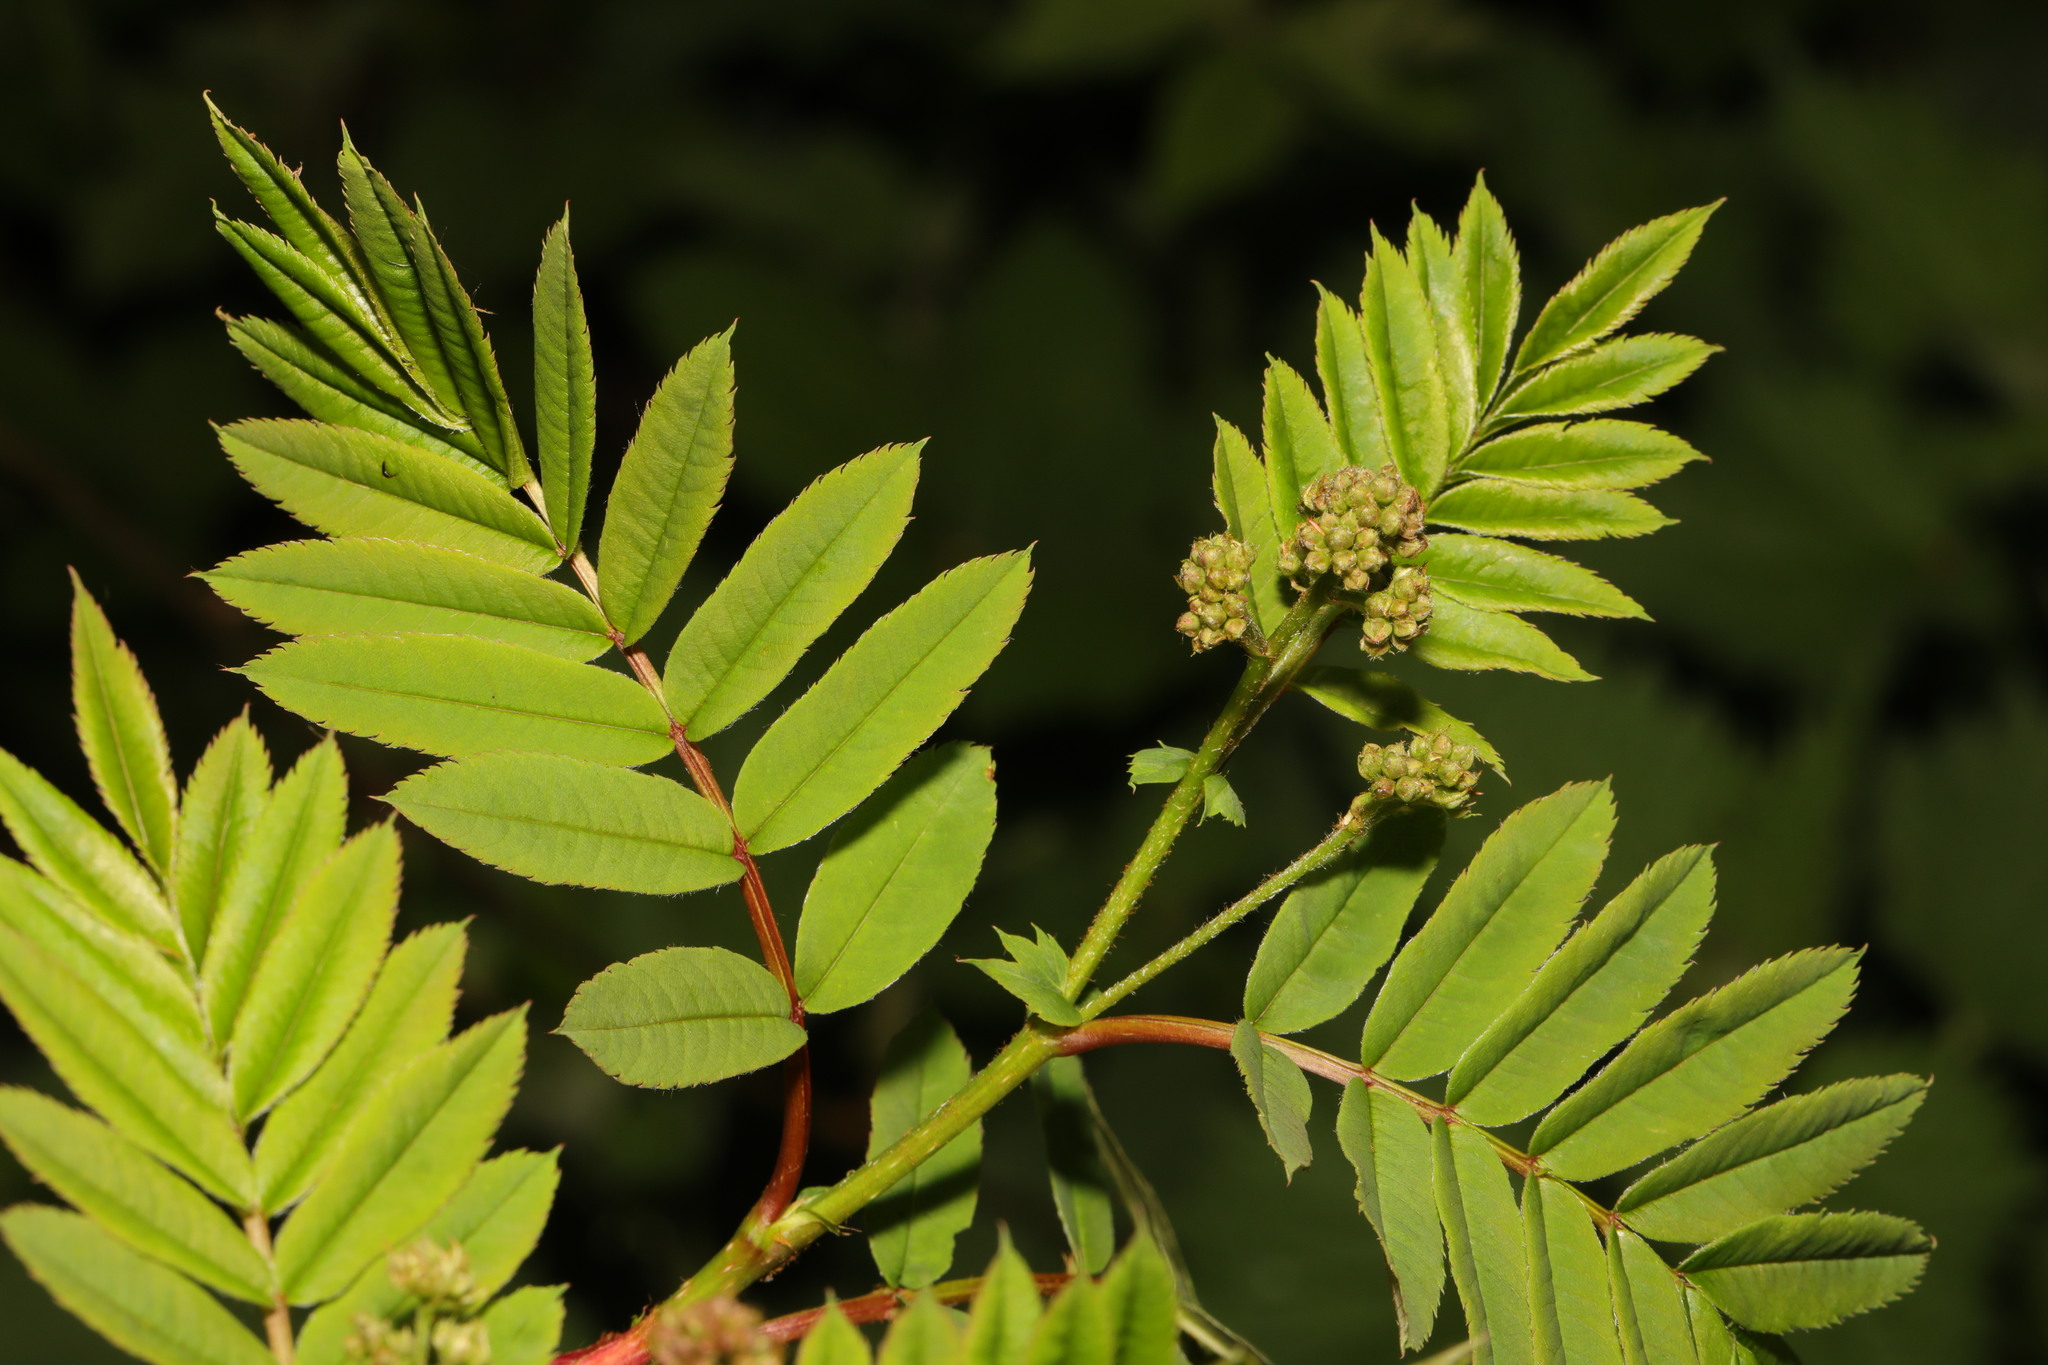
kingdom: Plantae
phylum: Tracheophyta
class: Magnoliopsida
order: Rosales
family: Rosaceae
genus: Sorbus
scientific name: Sorbus aucuparia
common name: Rowan
